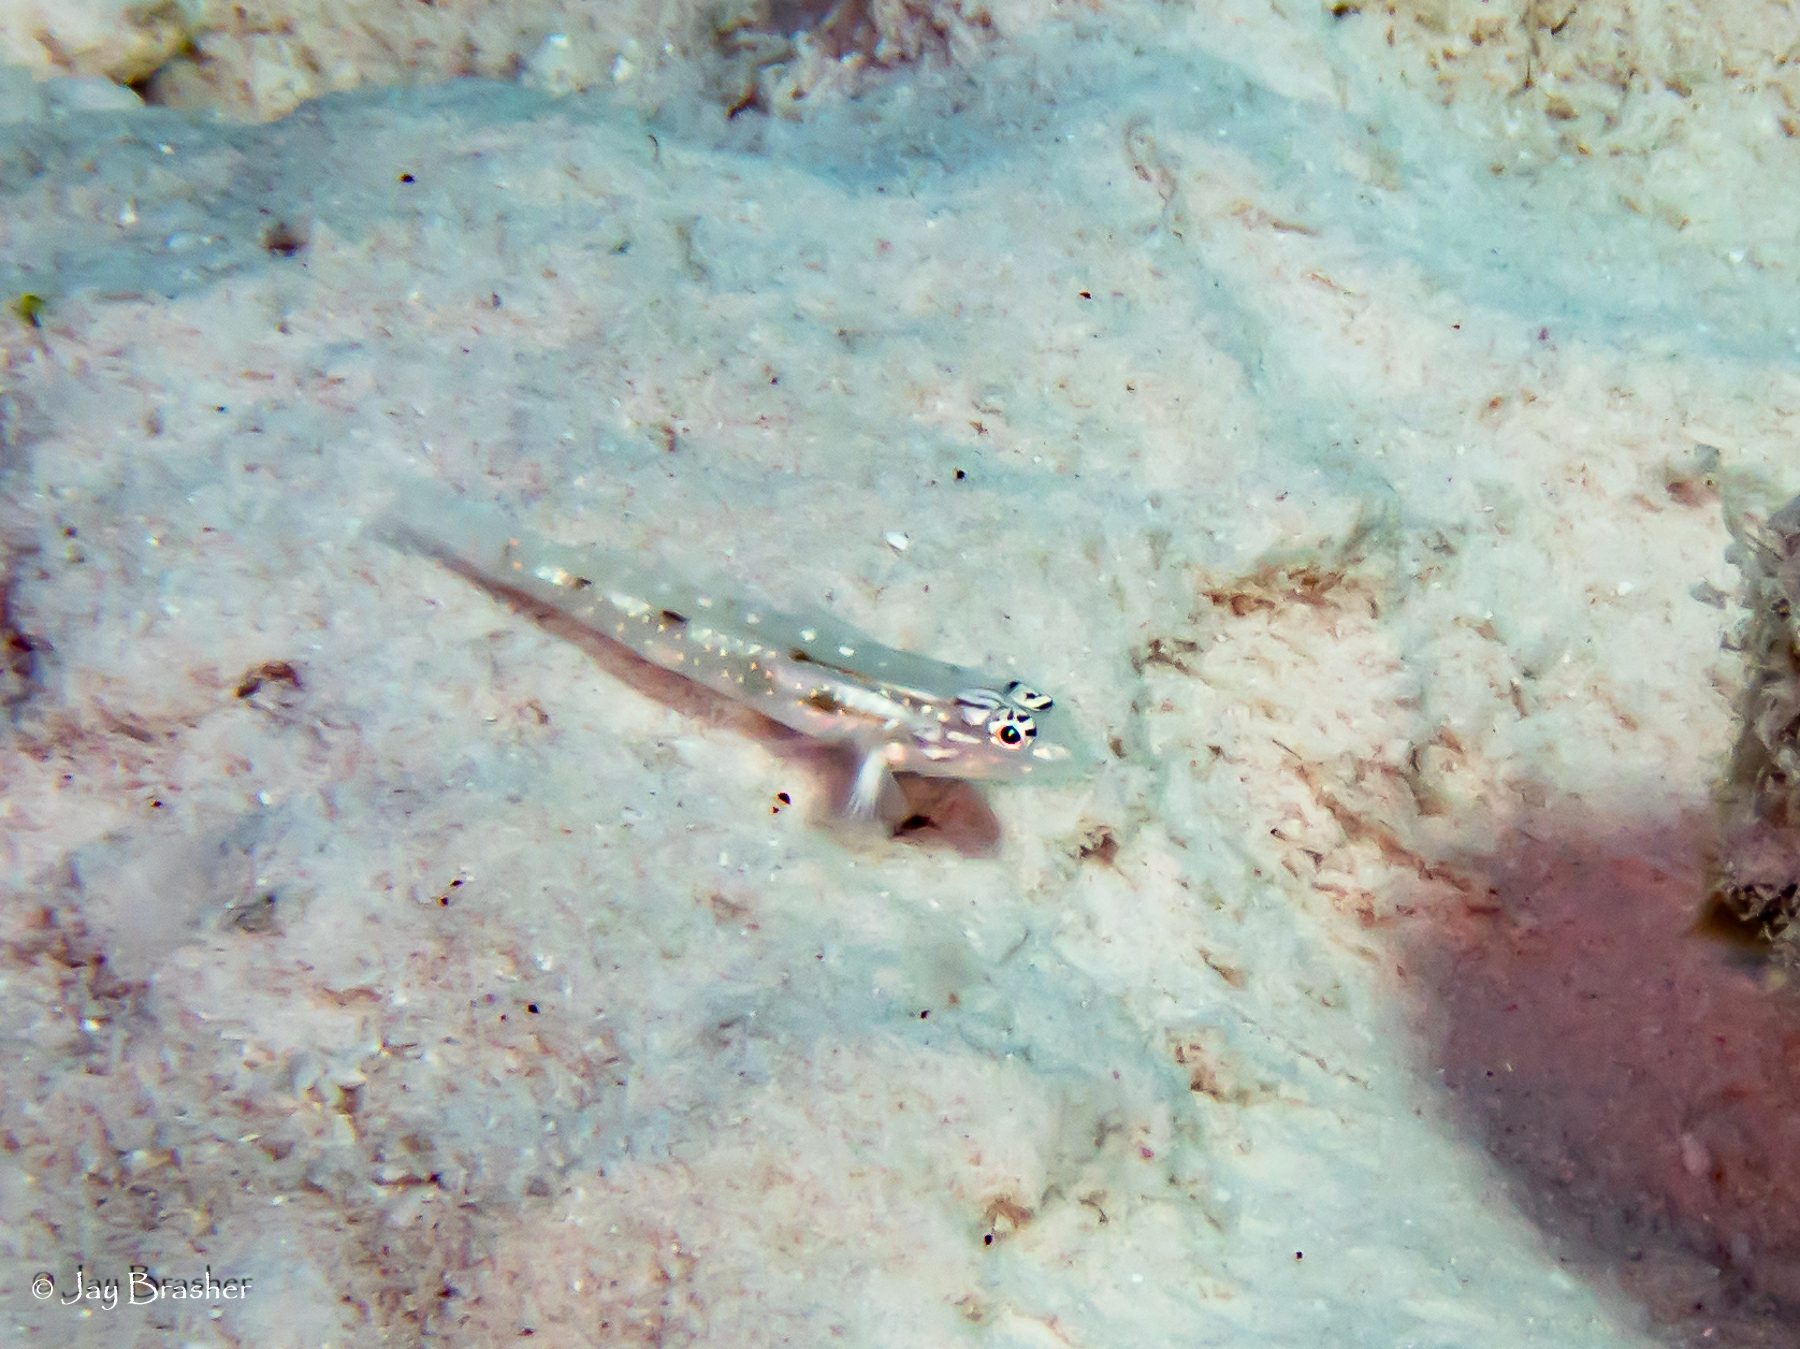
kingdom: Animalia
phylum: Chordata
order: Perciformes
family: Gobiidae
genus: Coryphopterus
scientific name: Coryphopterus venezuelae
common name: Sand-canyon goby
